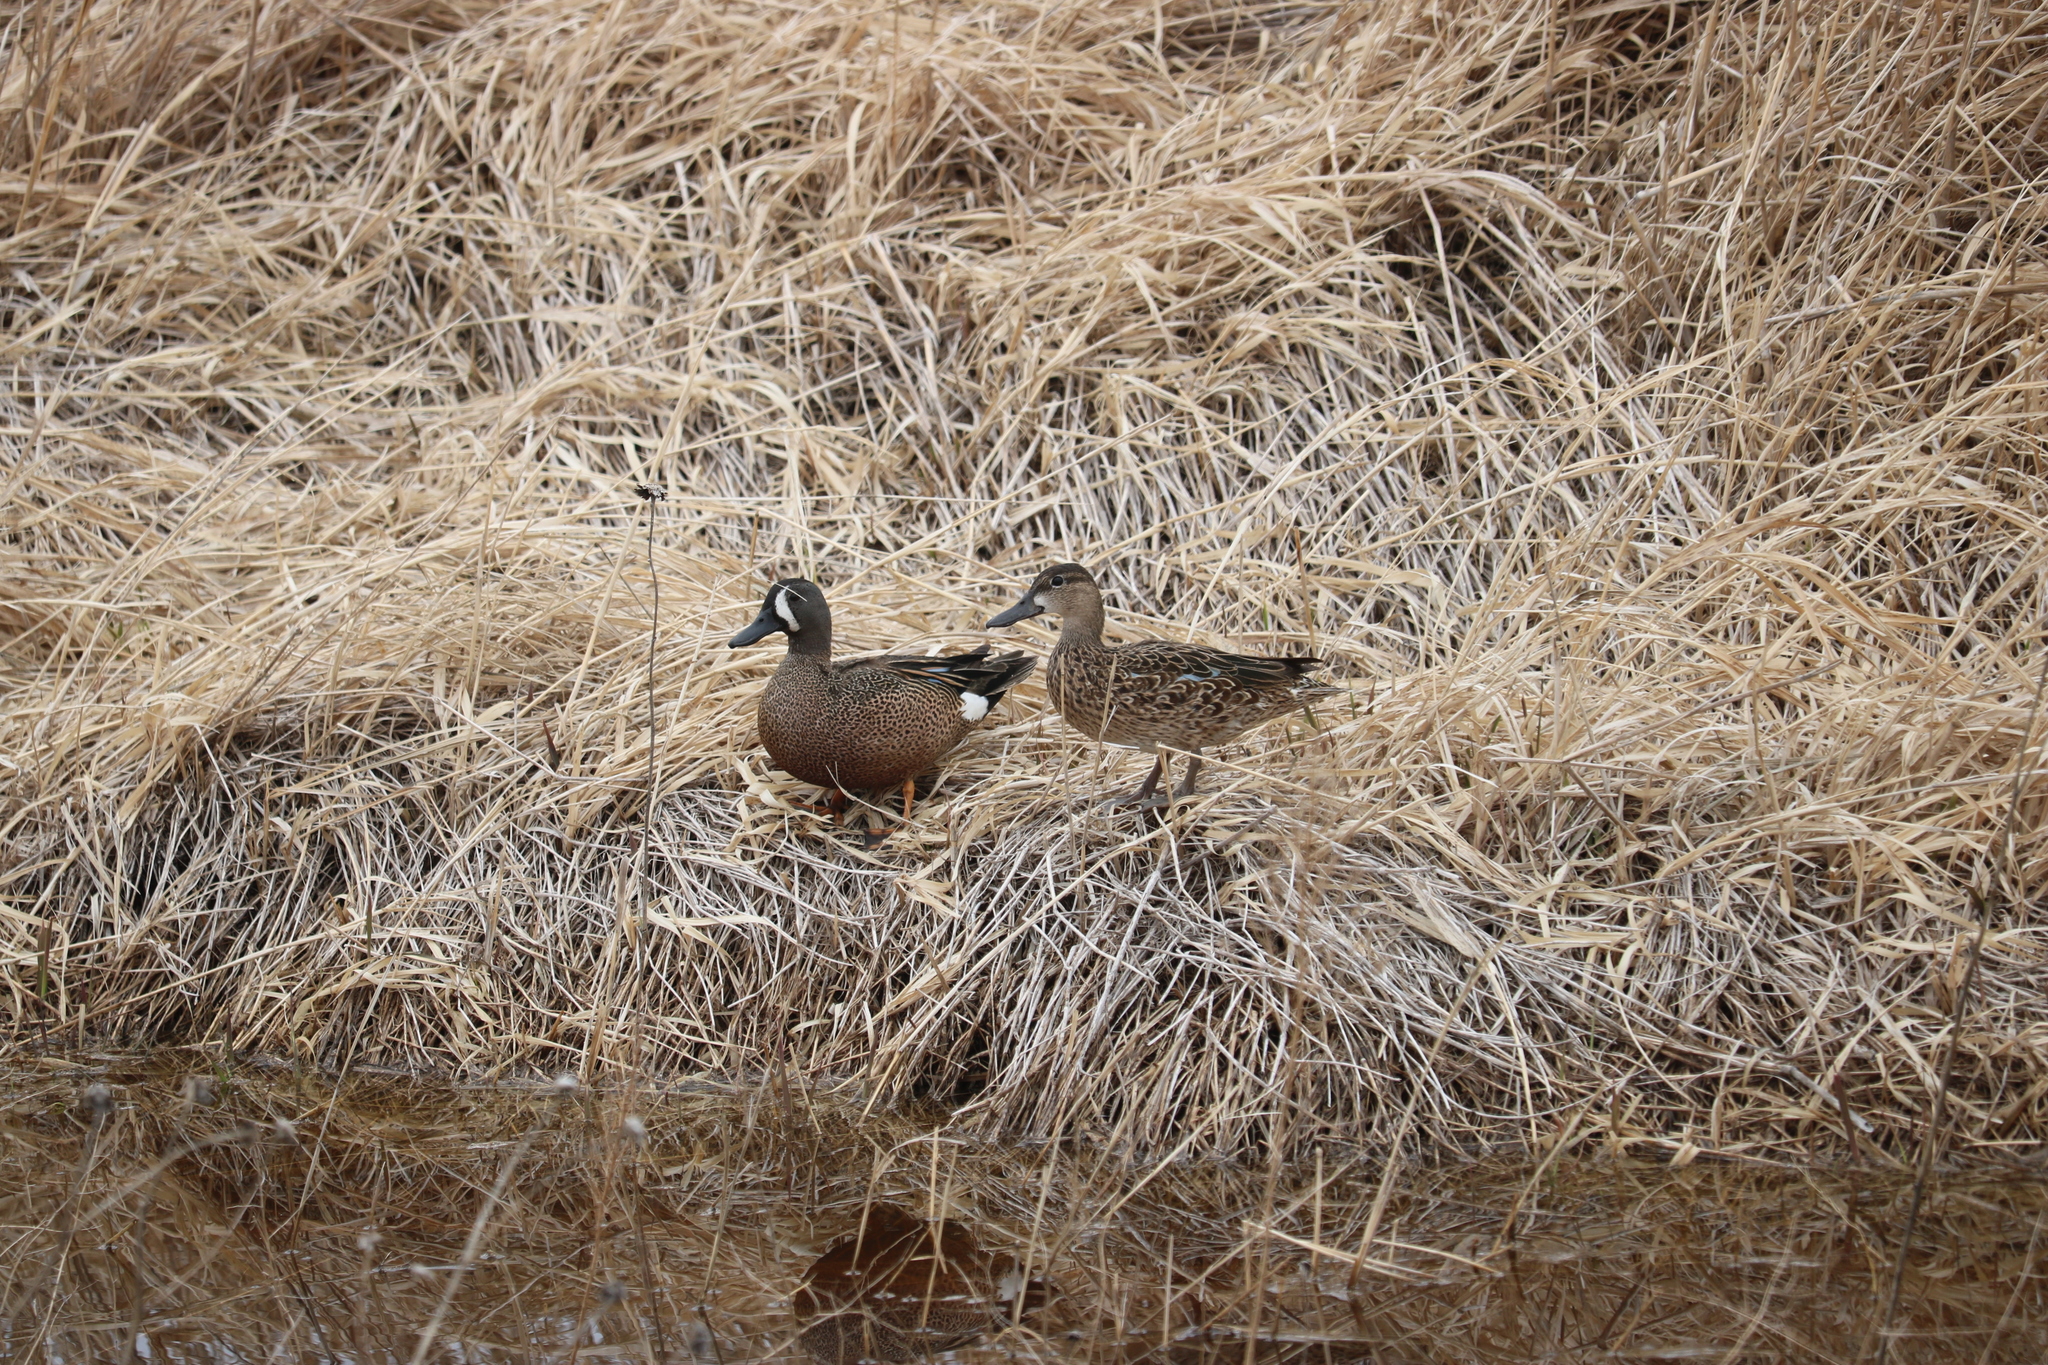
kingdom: Animalia
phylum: Chordata
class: Aves
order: Anseriformes
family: Anatidae
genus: Spatula
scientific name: Spatula discors
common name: Blue-winged teal
